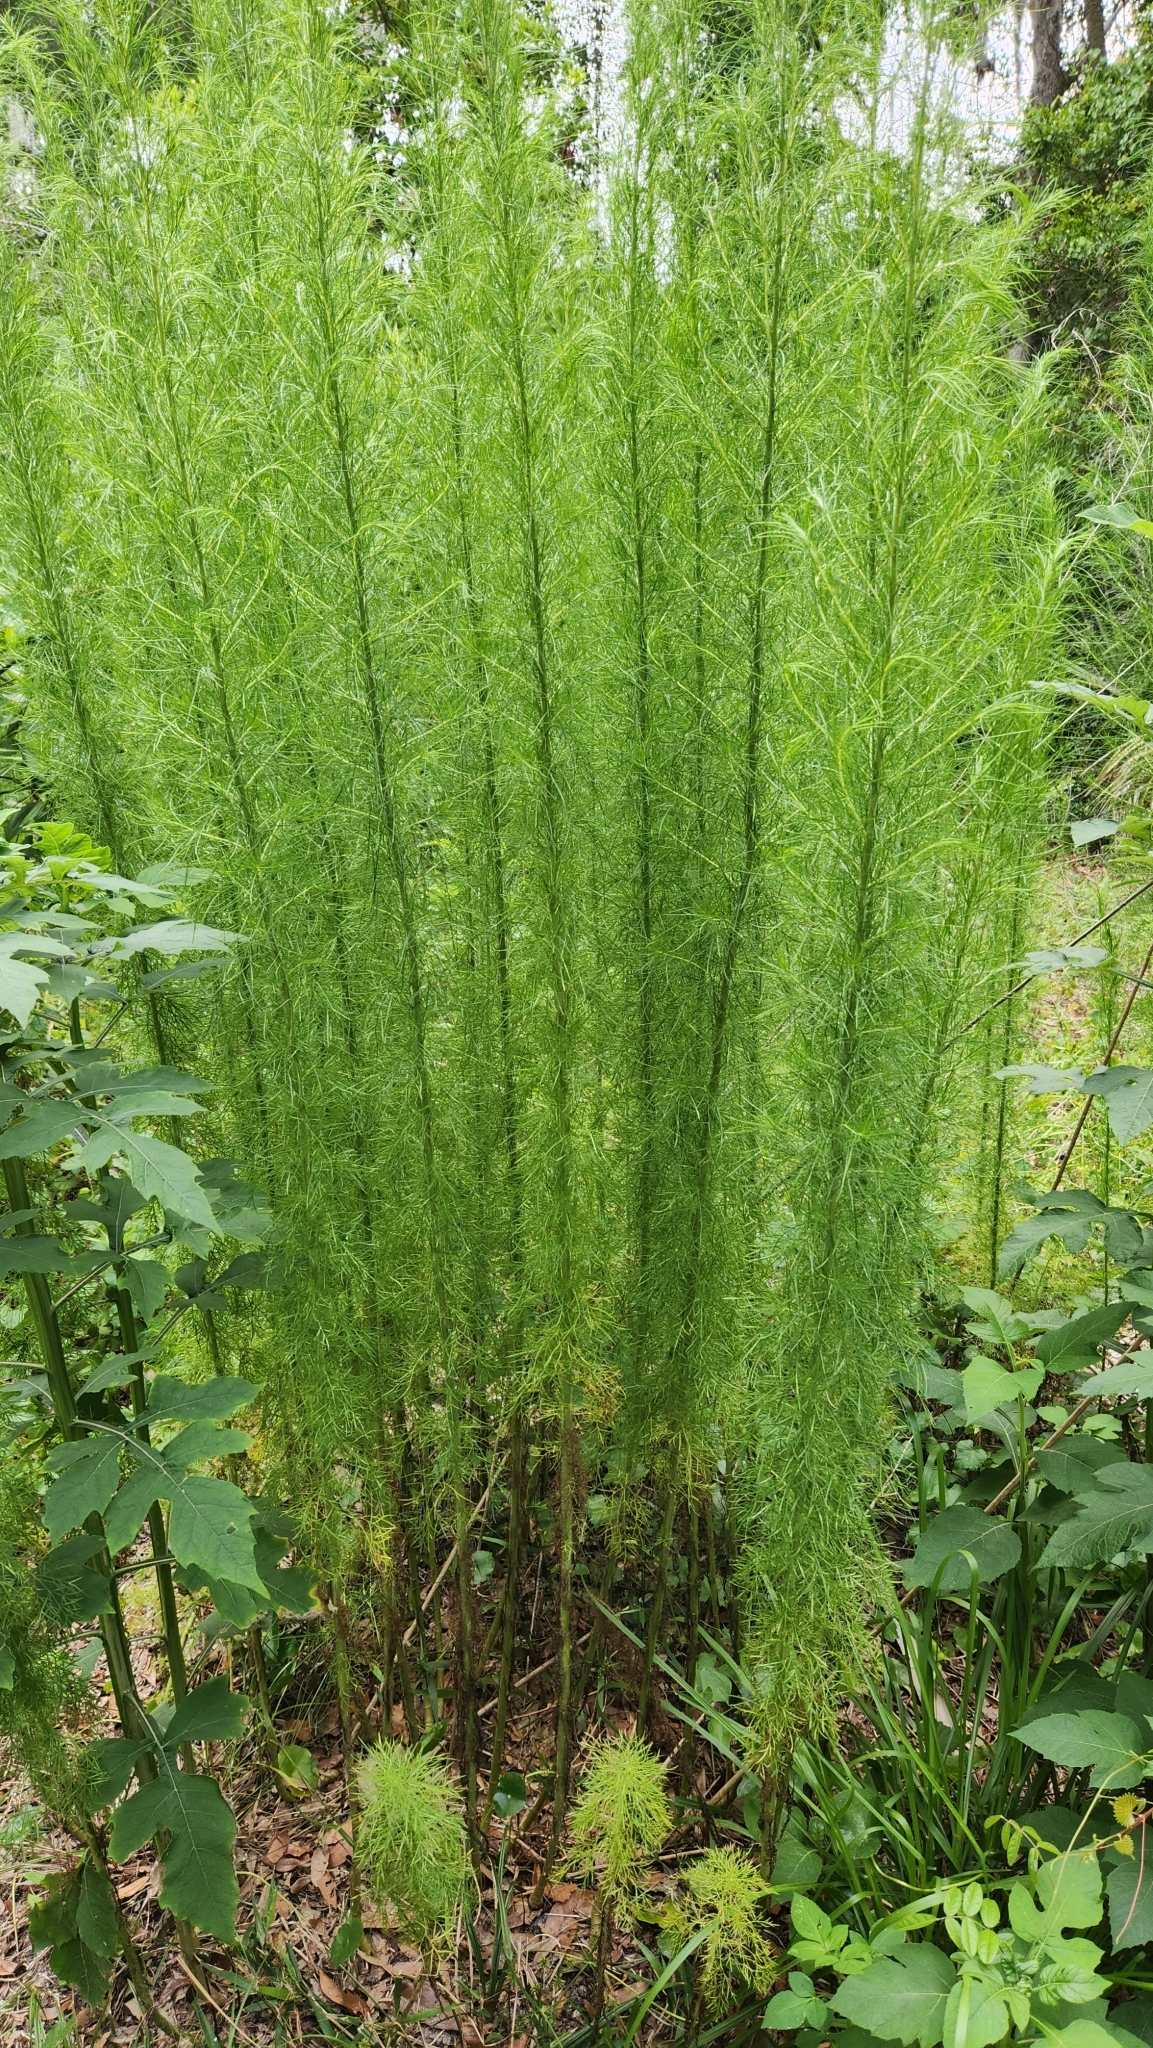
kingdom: Plantae
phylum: Tracheophyta
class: Magnoliopsida
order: Asterales
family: Asteraceae
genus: Eupatorium
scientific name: Eupatorium capillifolium
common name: Dog-fennel
